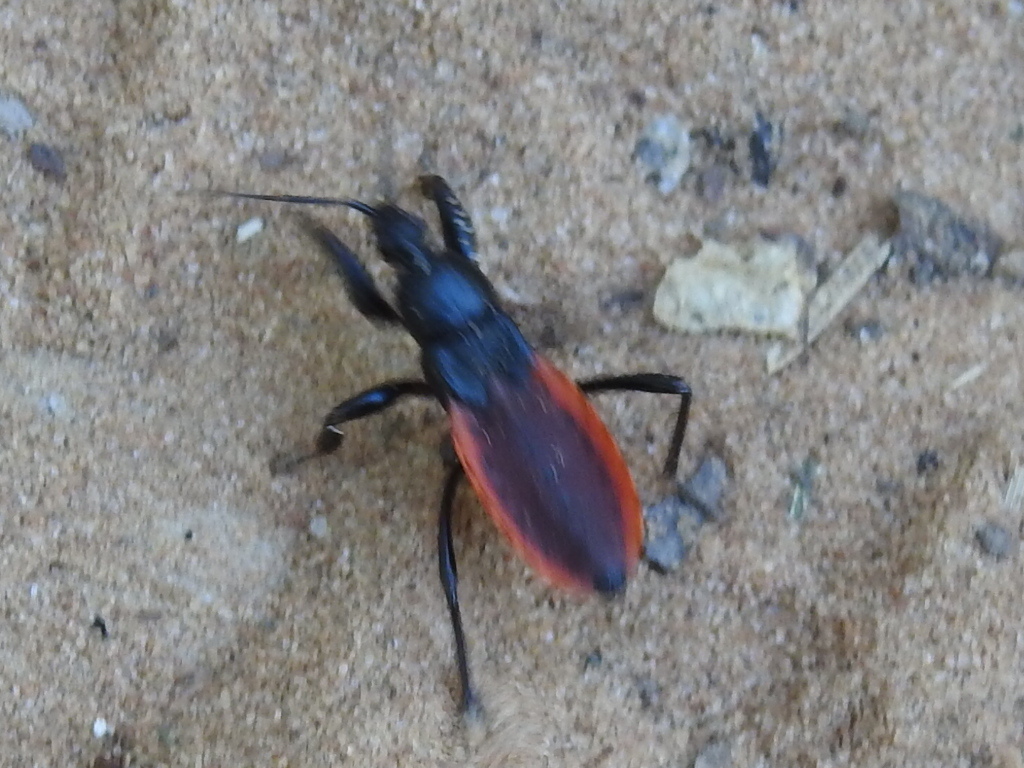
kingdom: Animalia
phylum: Arthropoda
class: Insecta
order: Hemiptera
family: Reduviidae
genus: Melanolestes
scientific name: Melanolestes picipes
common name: Assassin bug
